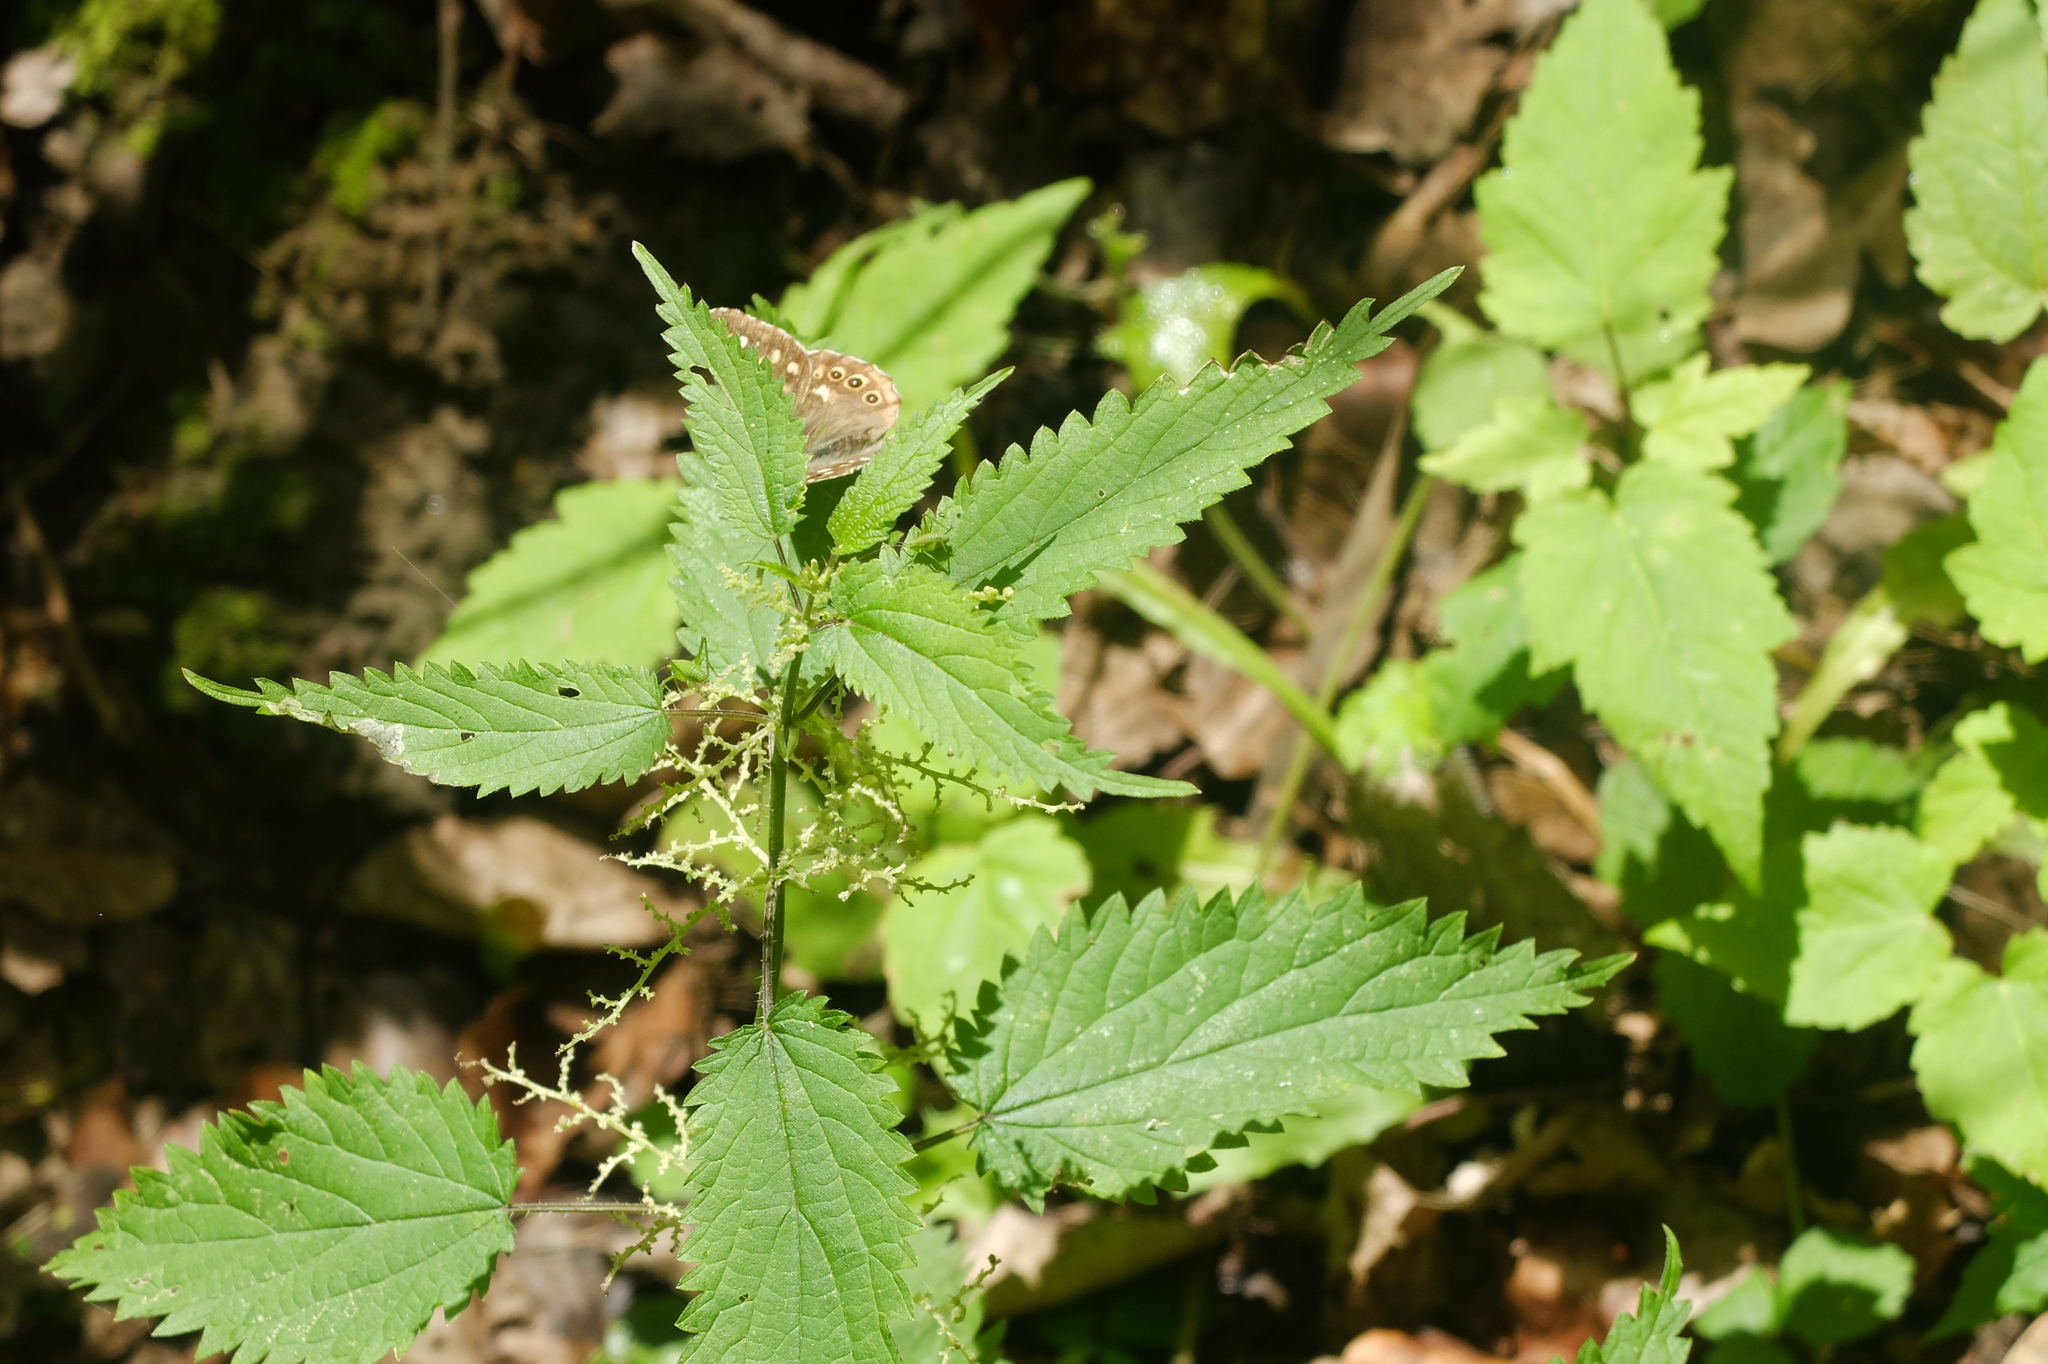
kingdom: Animalia
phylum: Arthropoda
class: Insecta
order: Lepidoptera
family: Nymphalidae
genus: Pararge
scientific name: Pararge aegeria
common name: Speckled wood
